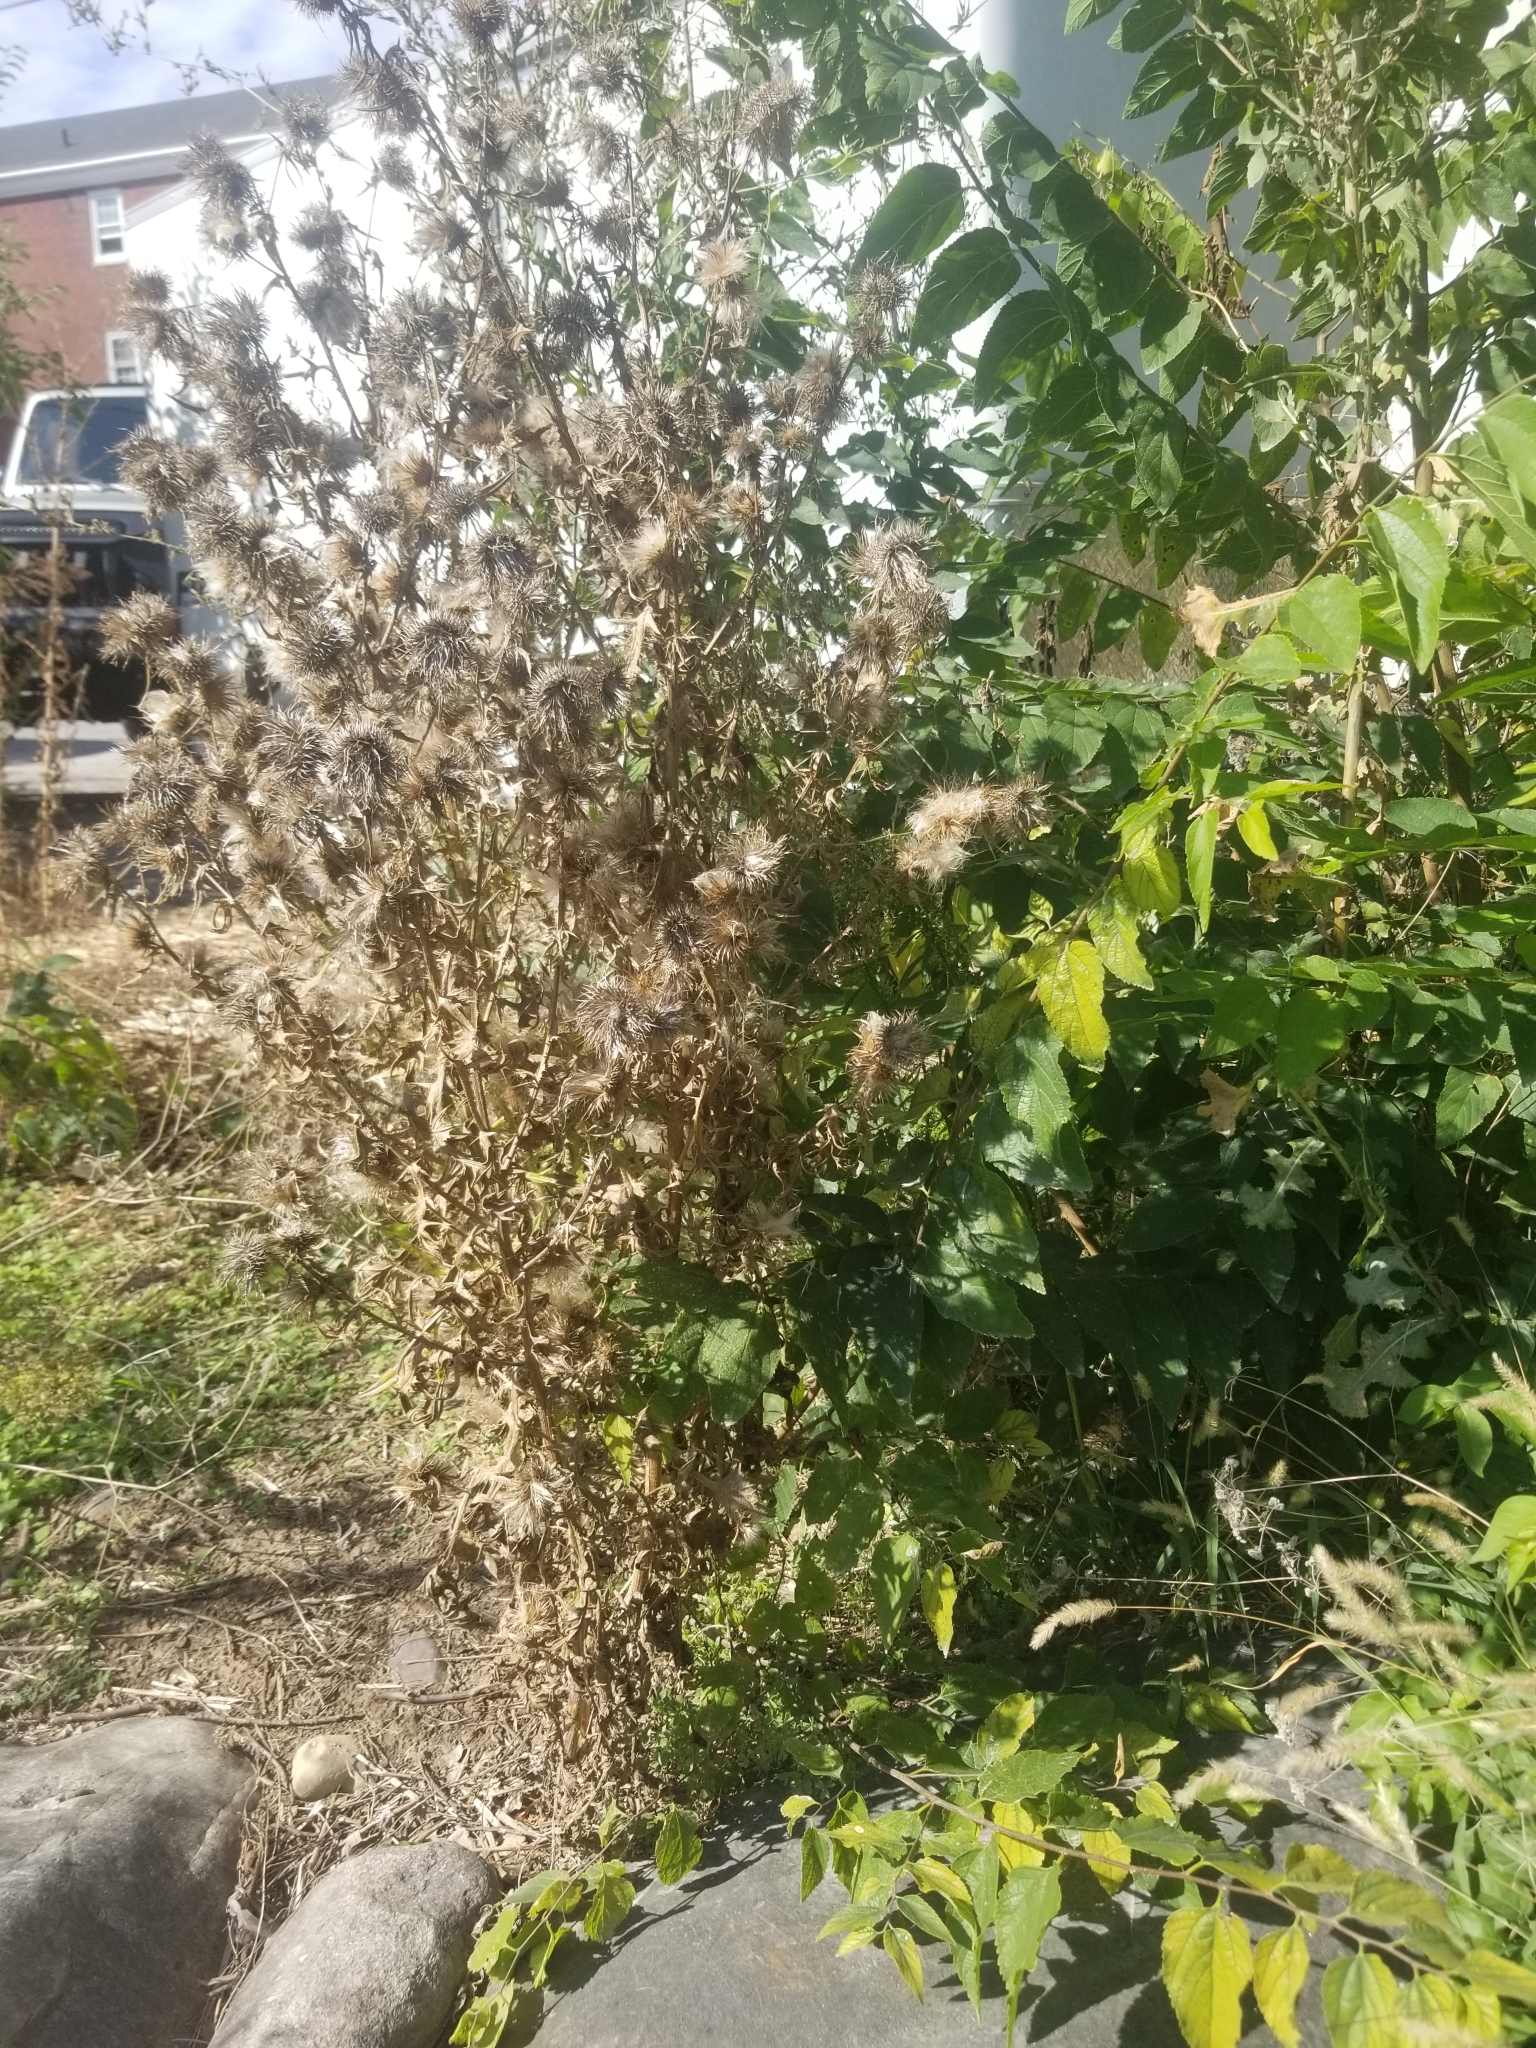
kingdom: Plantae
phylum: Tracheophyta
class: Magnoliopsida
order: Asterales
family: Asteraceae
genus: Cirsium
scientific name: Cirsium vulgare
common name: Bull thistle
